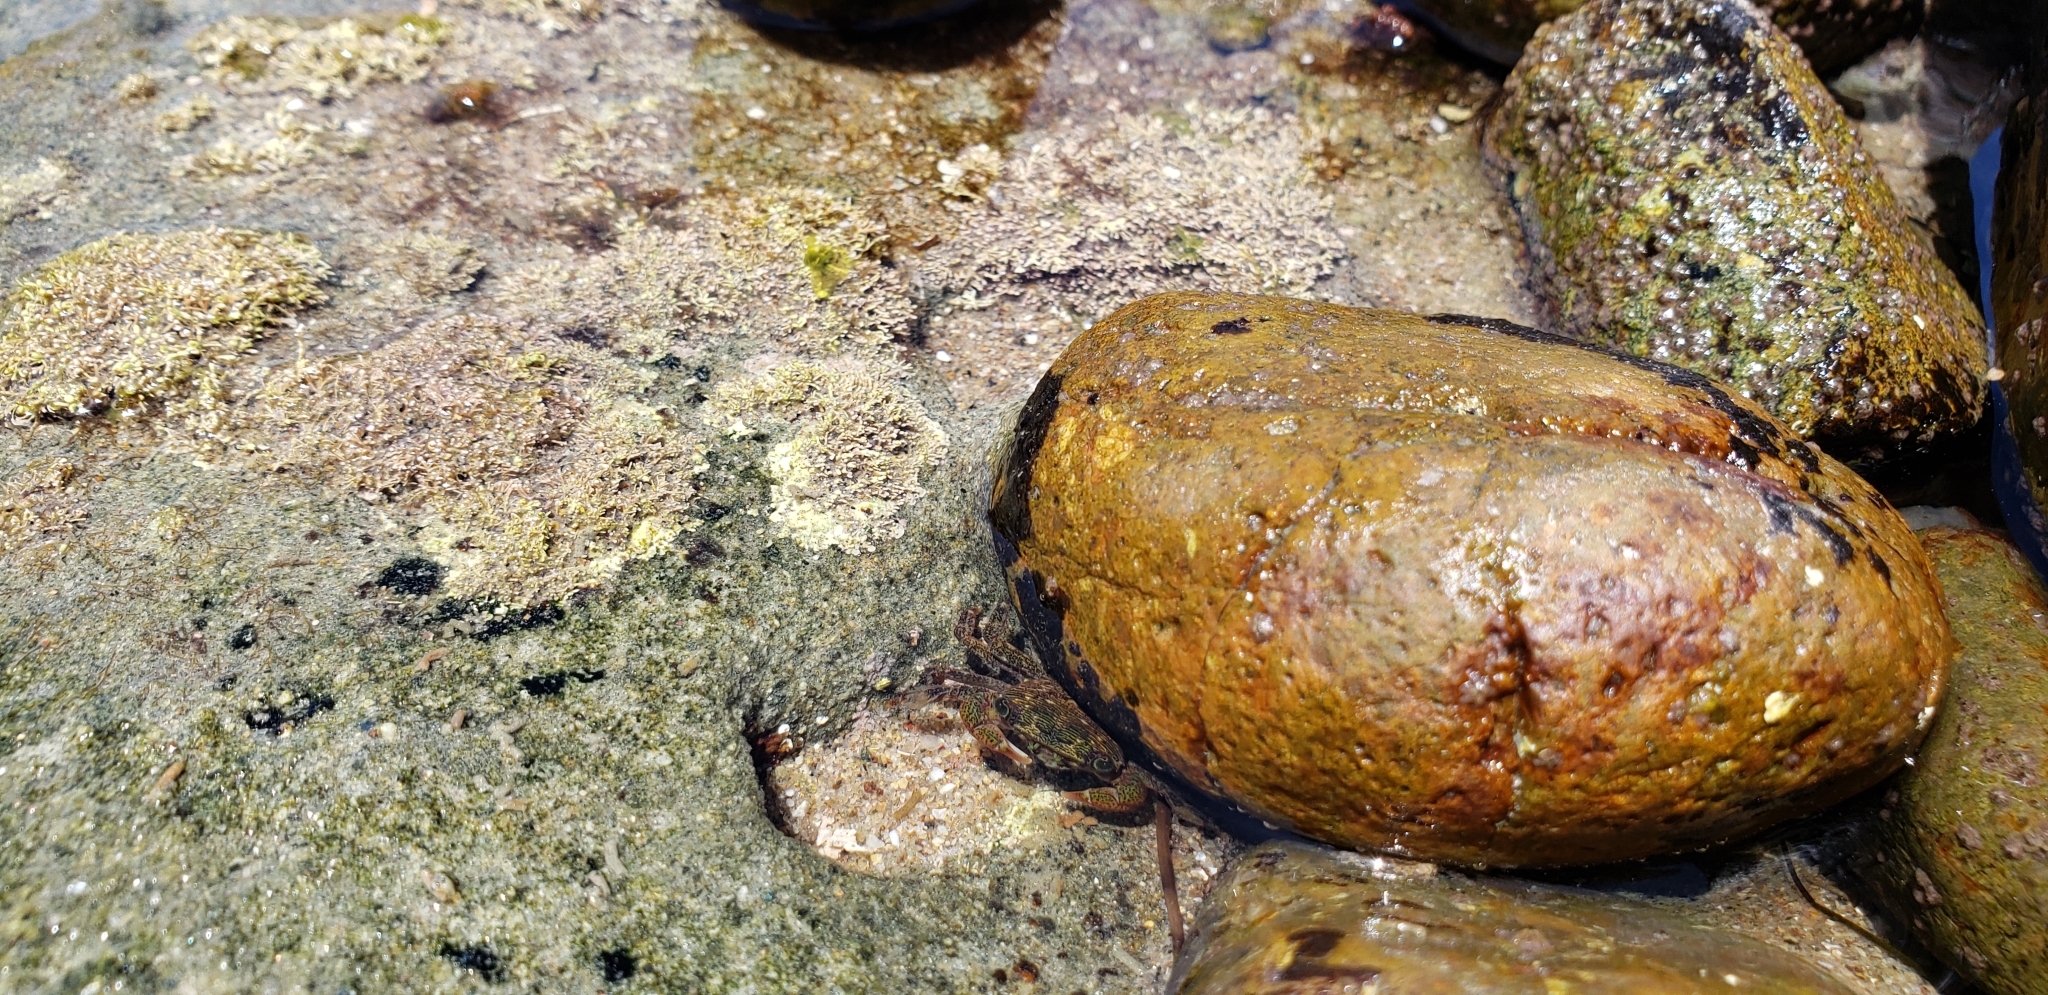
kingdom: Animalia
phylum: Arthropoda
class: Malacostraca
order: Decapoda
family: Grapsidae
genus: Pachygrapsus
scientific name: Pachygrapsus crassipes
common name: Striped shore crab
